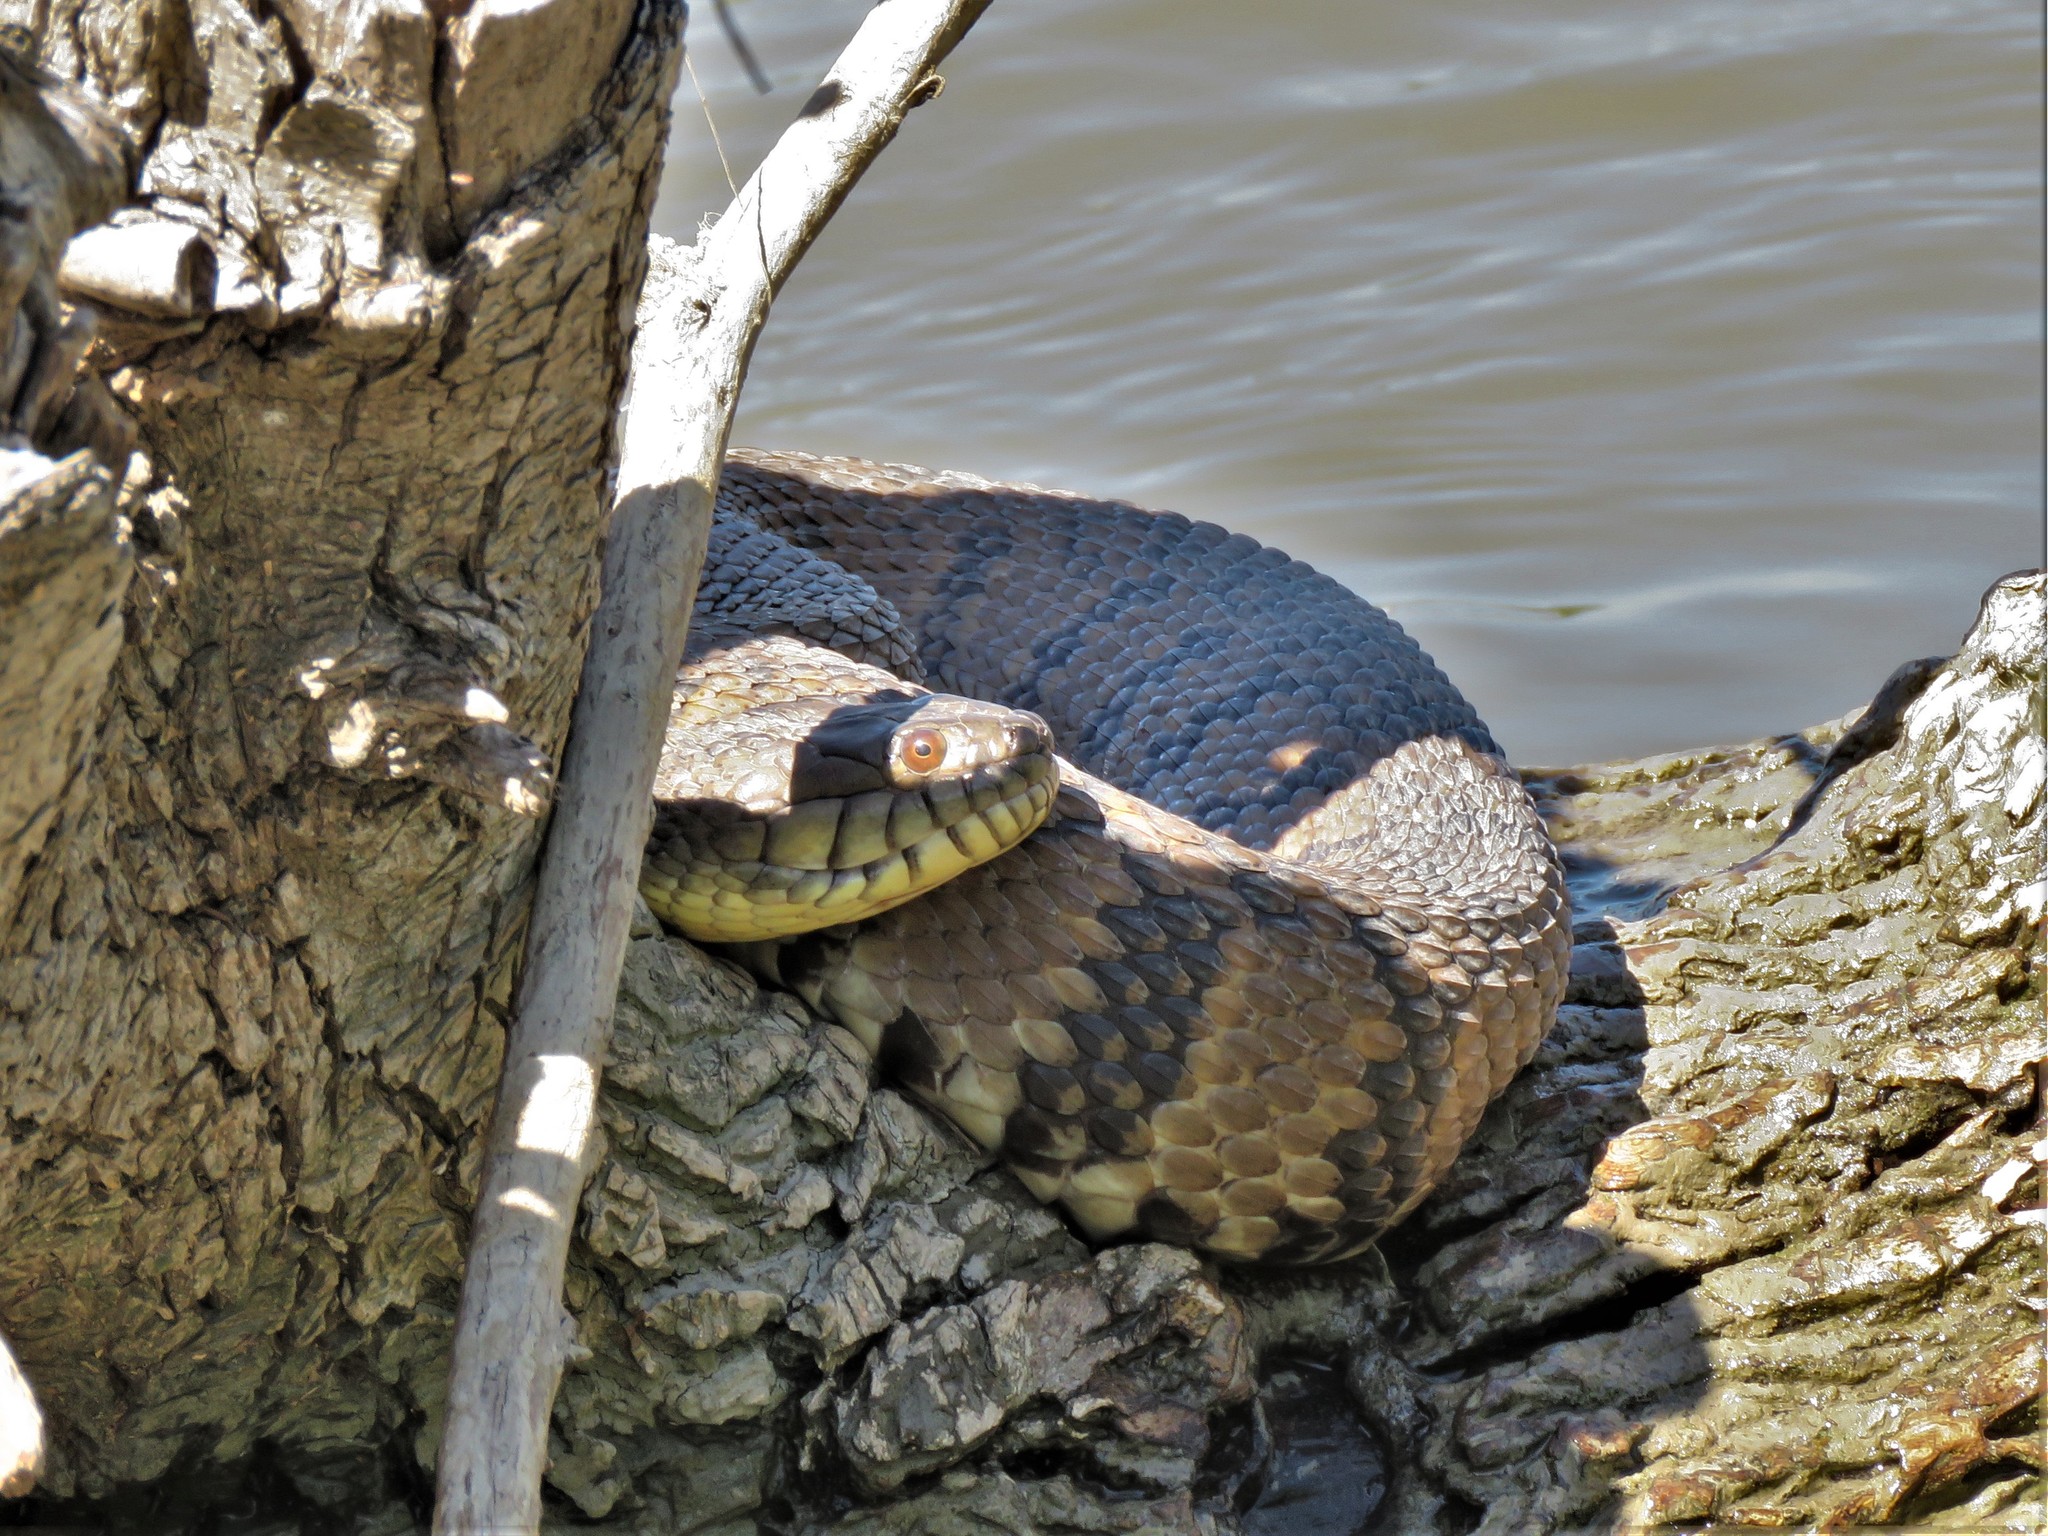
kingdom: Animalia
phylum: Chordata
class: Squamata
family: Colubridae
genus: Nerodia
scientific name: Nerodia rhombifer
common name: Diamondback water snake
